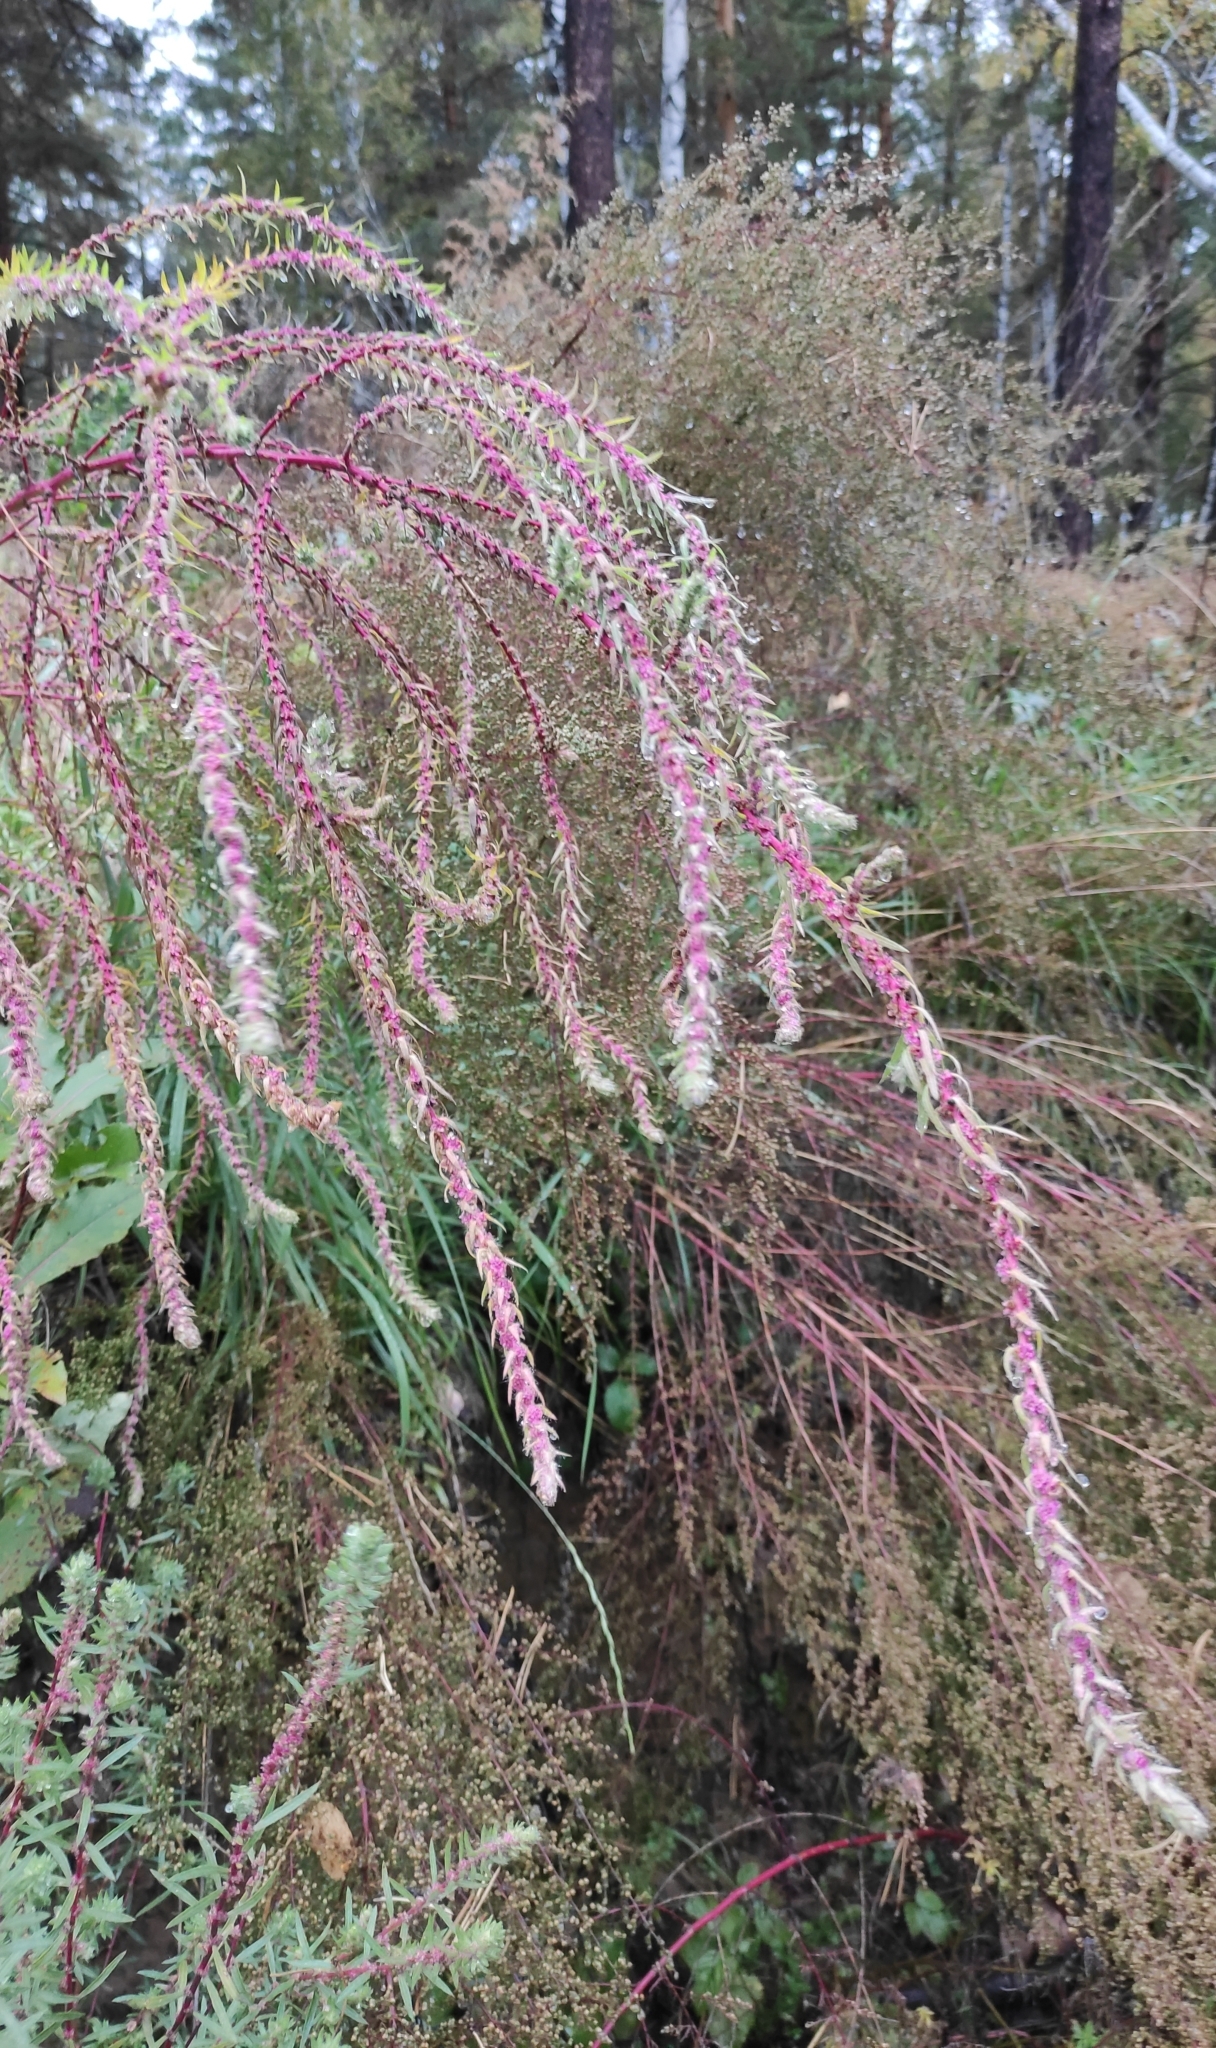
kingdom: Plantae
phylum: Tracheophyta
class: Magnoliopsida
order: Caryophyllales
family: Amaranthaceae
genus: Bassia
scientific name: Bassia scoparia
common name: Belvedere
